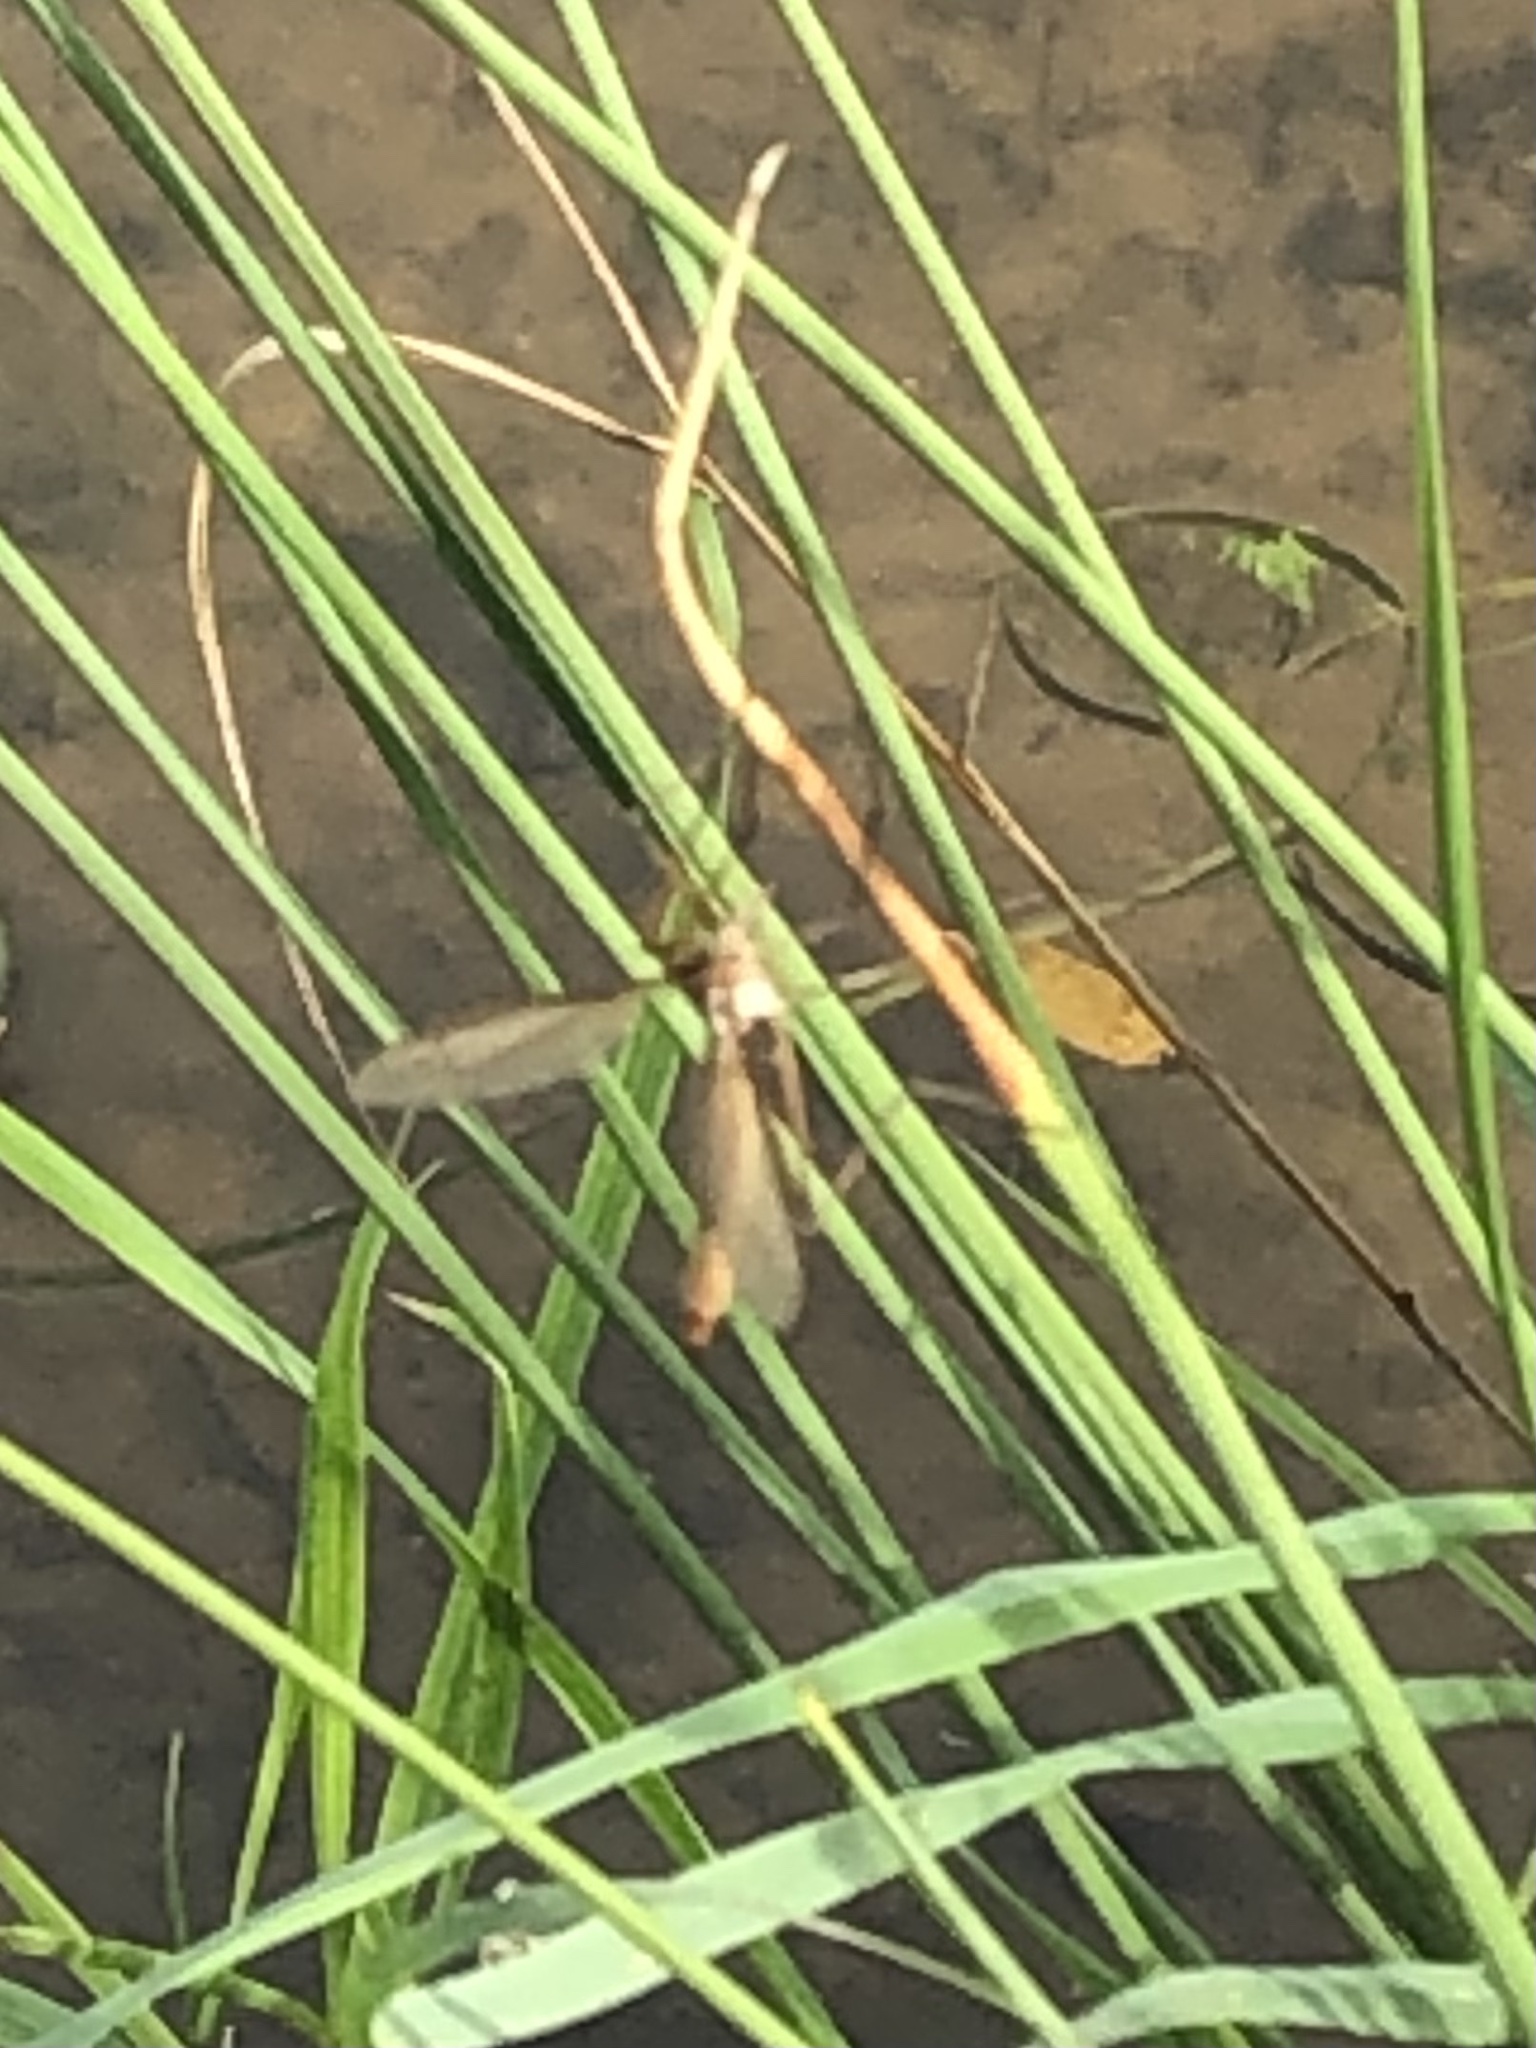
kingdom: Animalia
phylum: Arthropoda
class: Insecta
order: Diptera
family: Tipulidae
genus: Tipula
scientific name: Tipula
